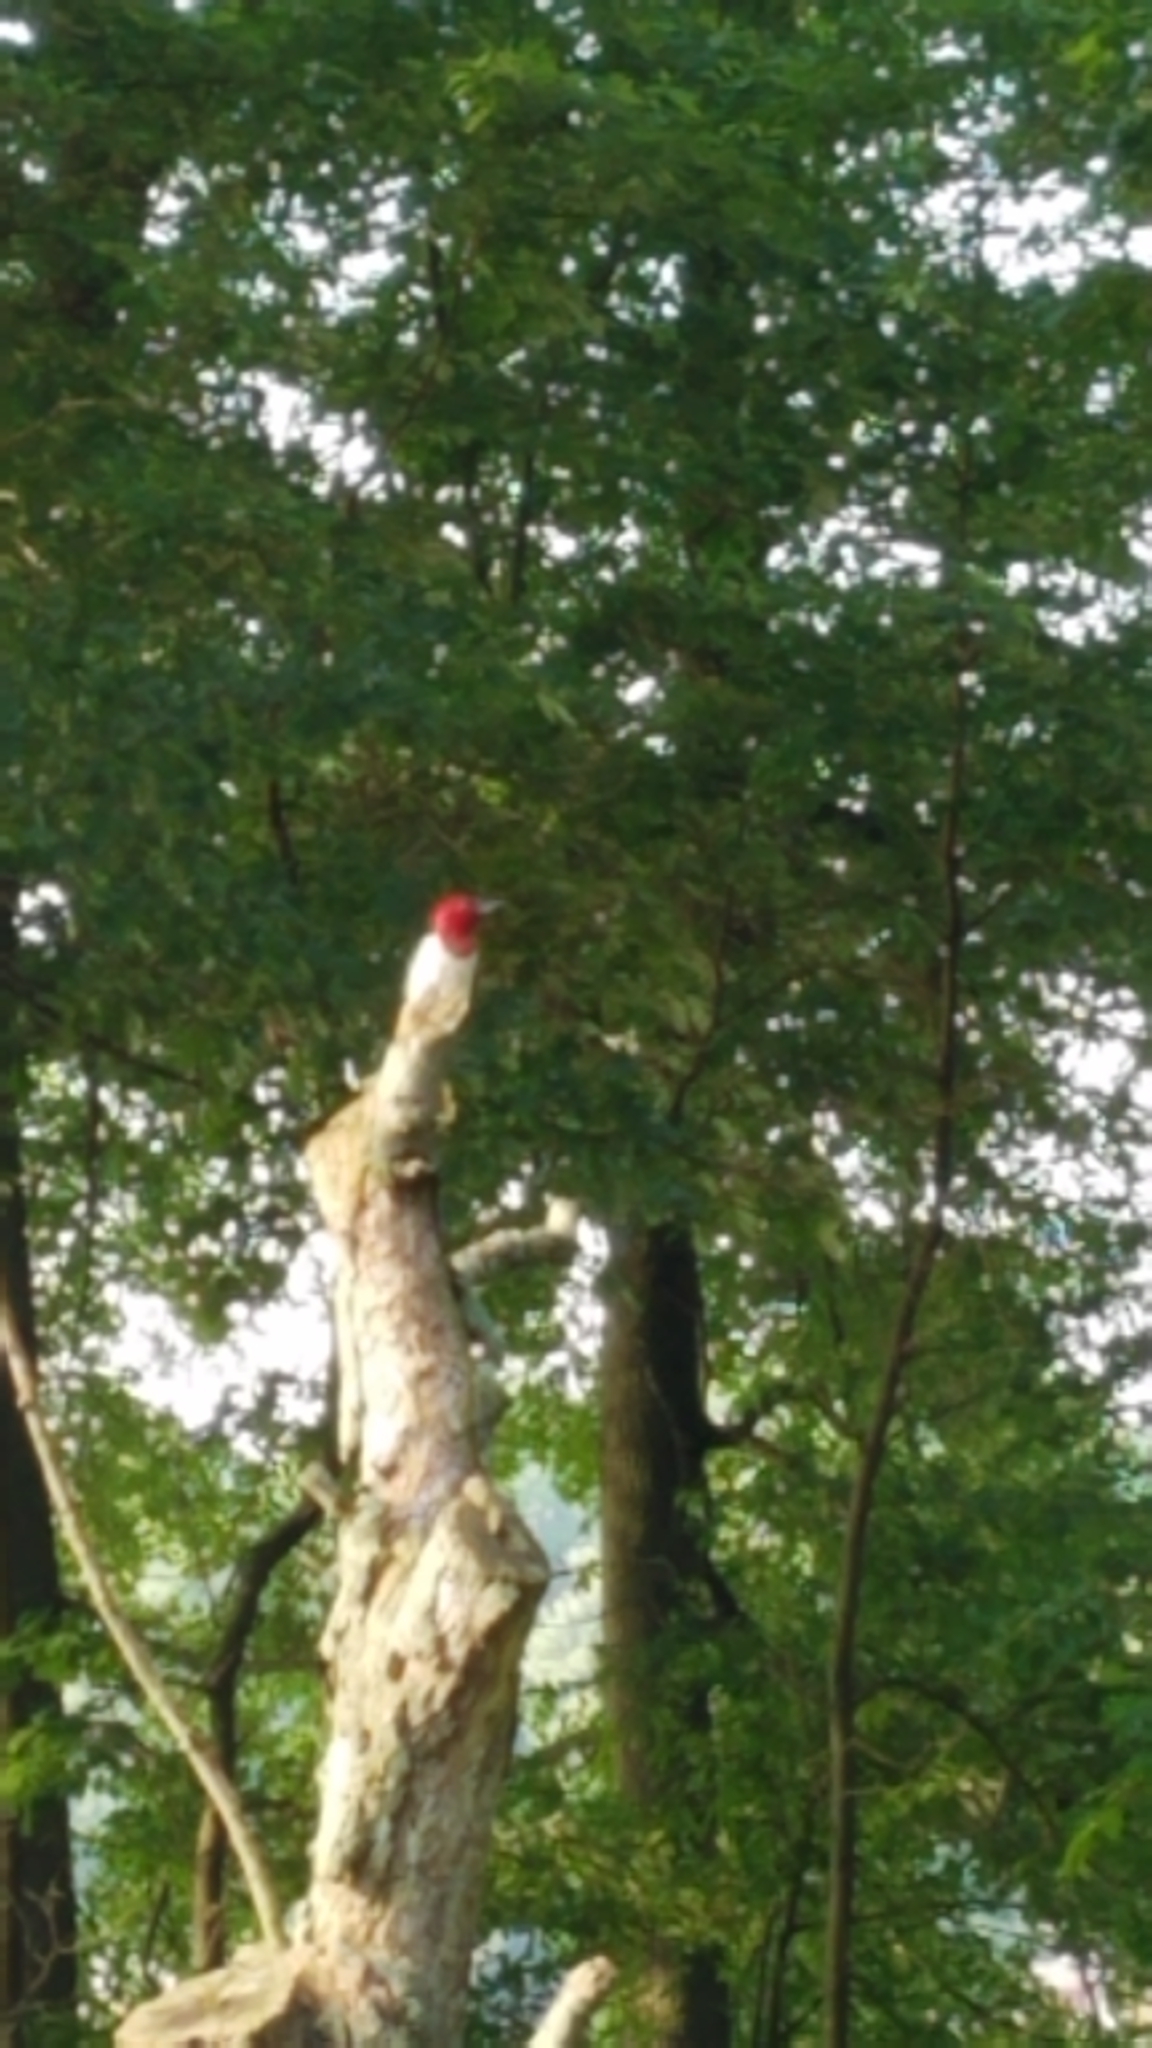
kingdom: Animalia
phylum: Chordata
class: Aves
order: Piciformes
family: Picidae
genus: Melanerpes
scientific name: Melanerpes erythrocephalus
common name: Red-headed woodpecker
